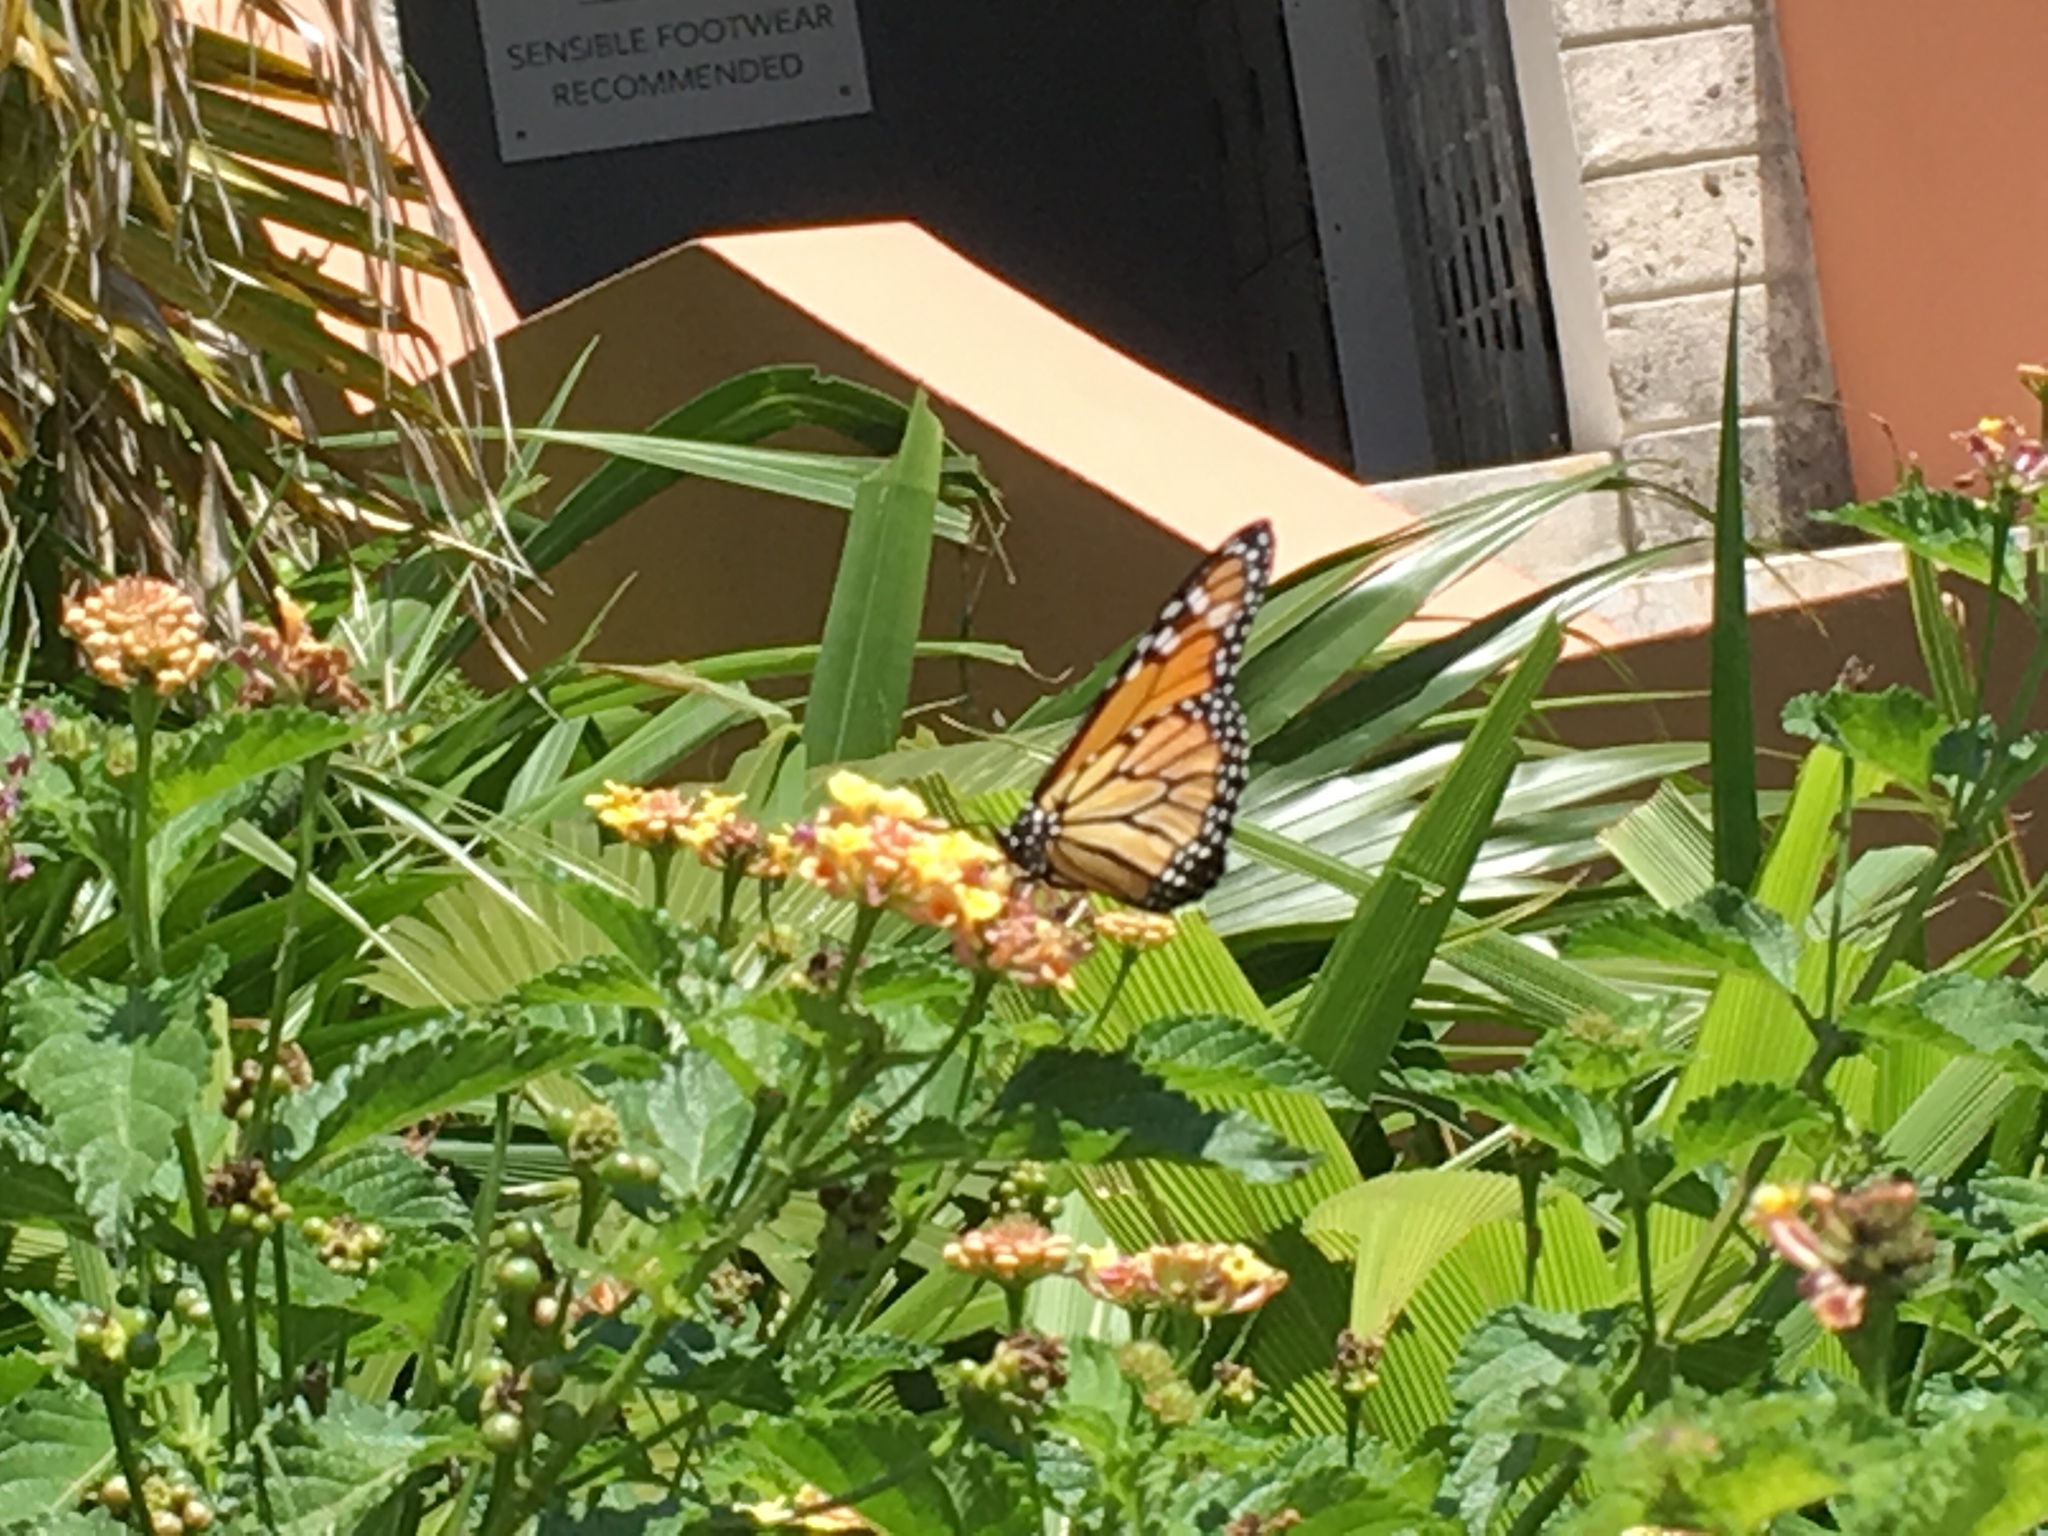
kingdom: Animalia
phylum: Arthropoda
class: Insecta
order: Lepidoptera
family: Nymphalidae
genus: Danaus
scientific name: Danaus plexippus
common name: Monarch
